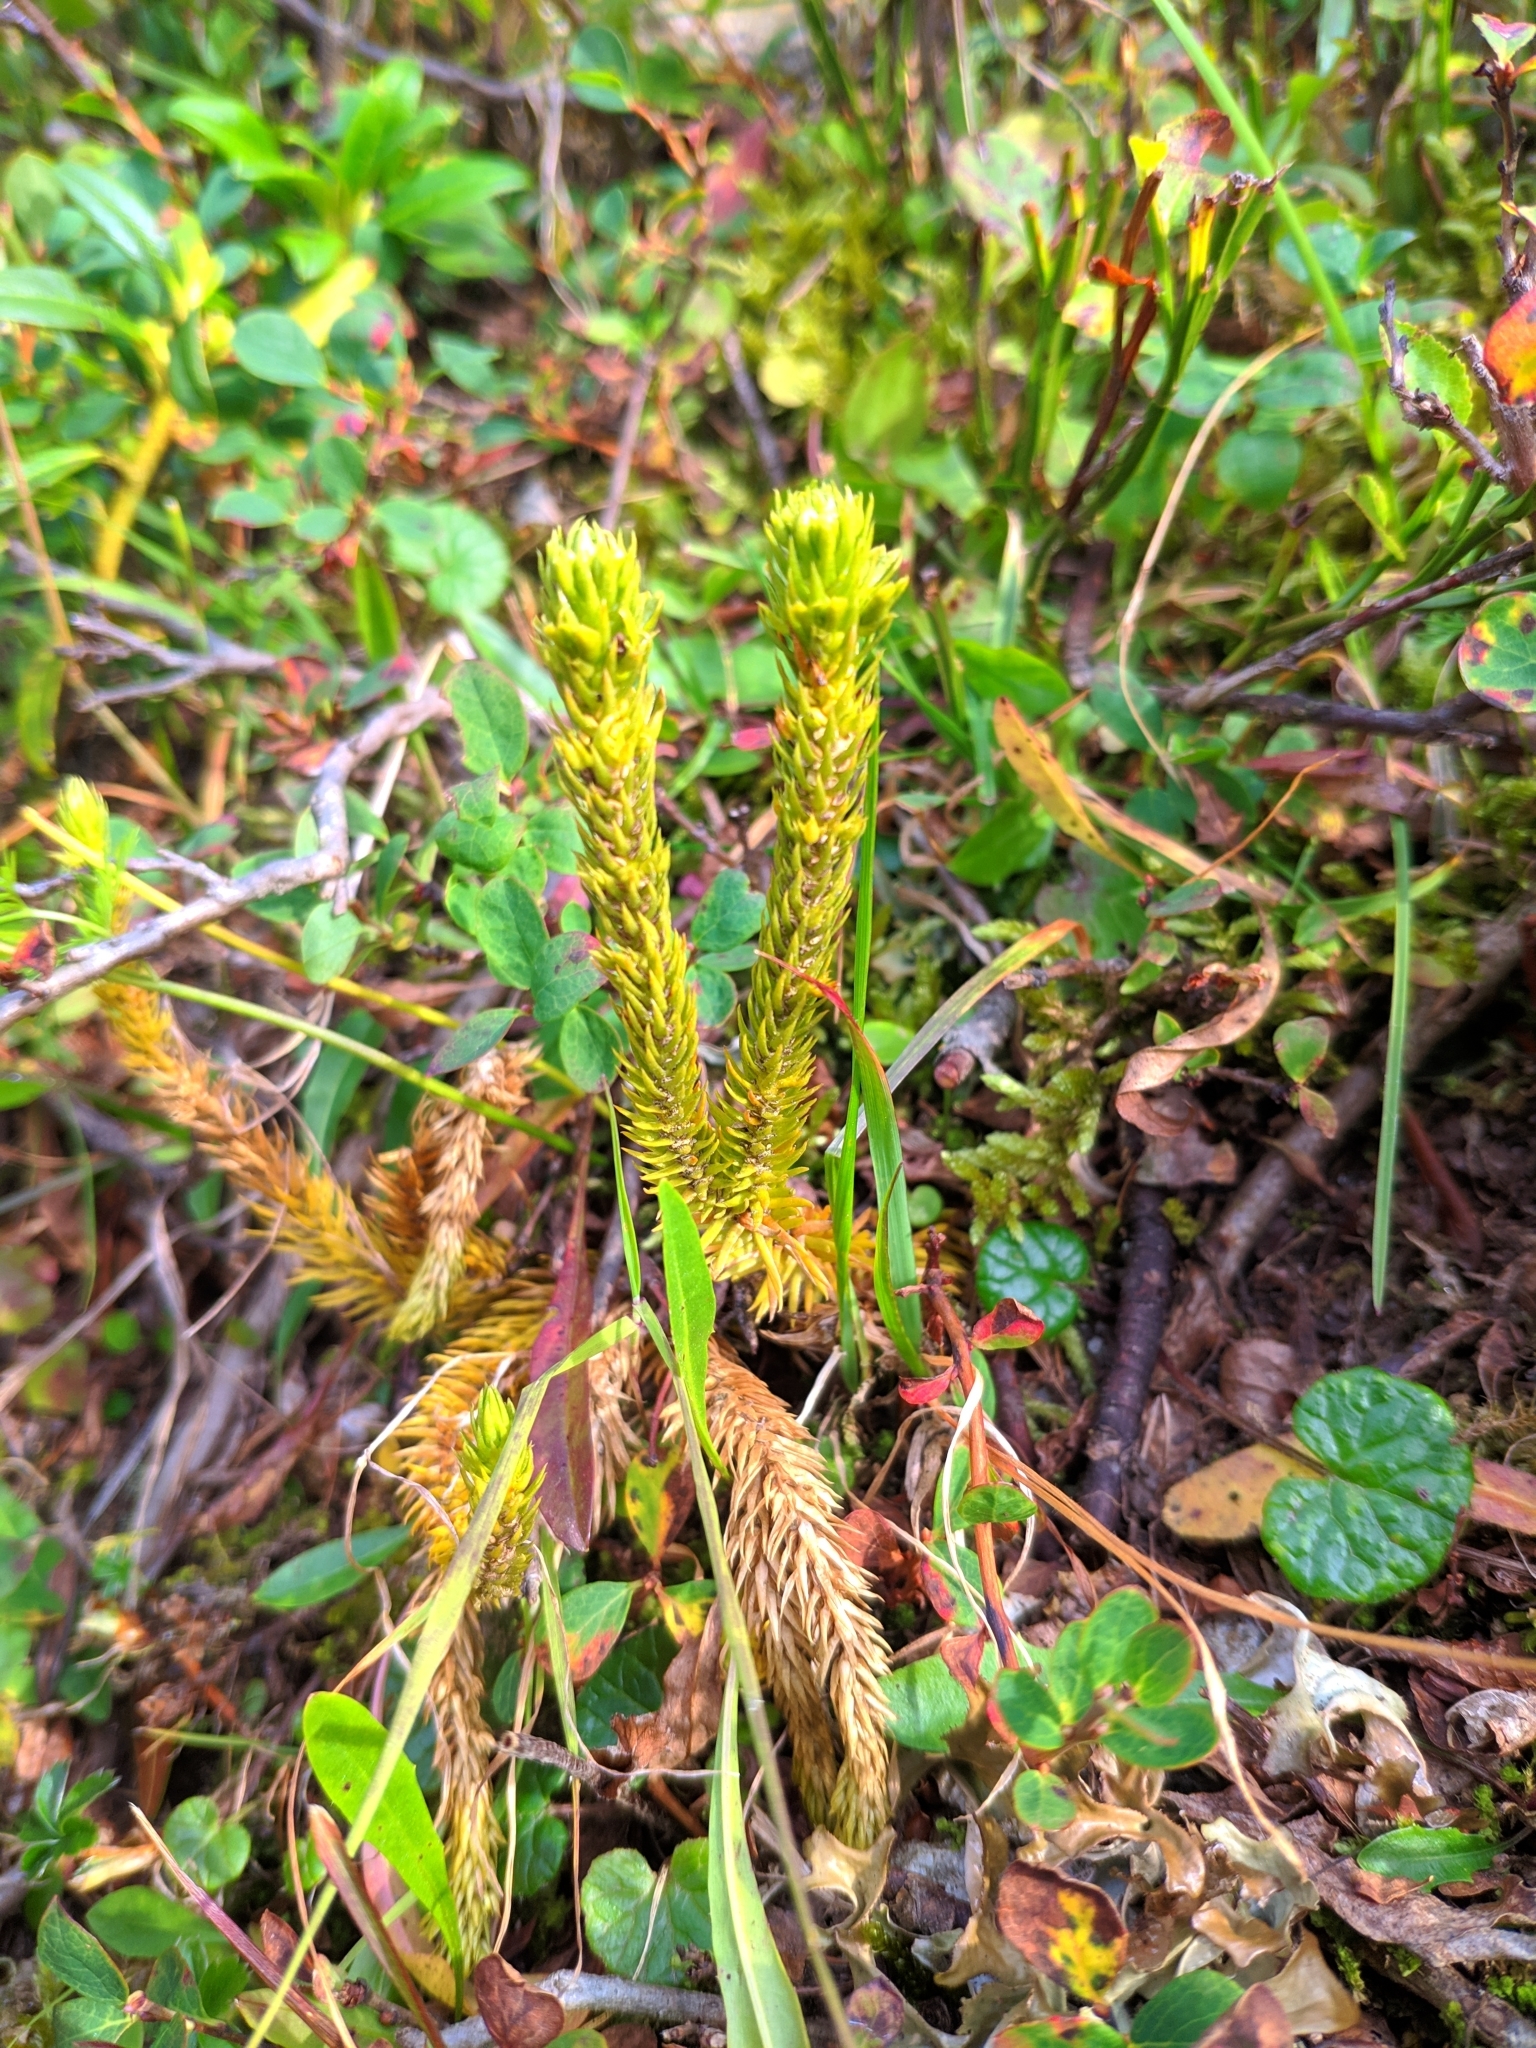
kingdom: Plantae
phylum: Tracheophyta
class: Lycopodiopsida
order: Lycopodiales
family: Lycopodiaceae
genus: Huperzia
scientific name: Huperzia selago
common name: Northern firmoss
